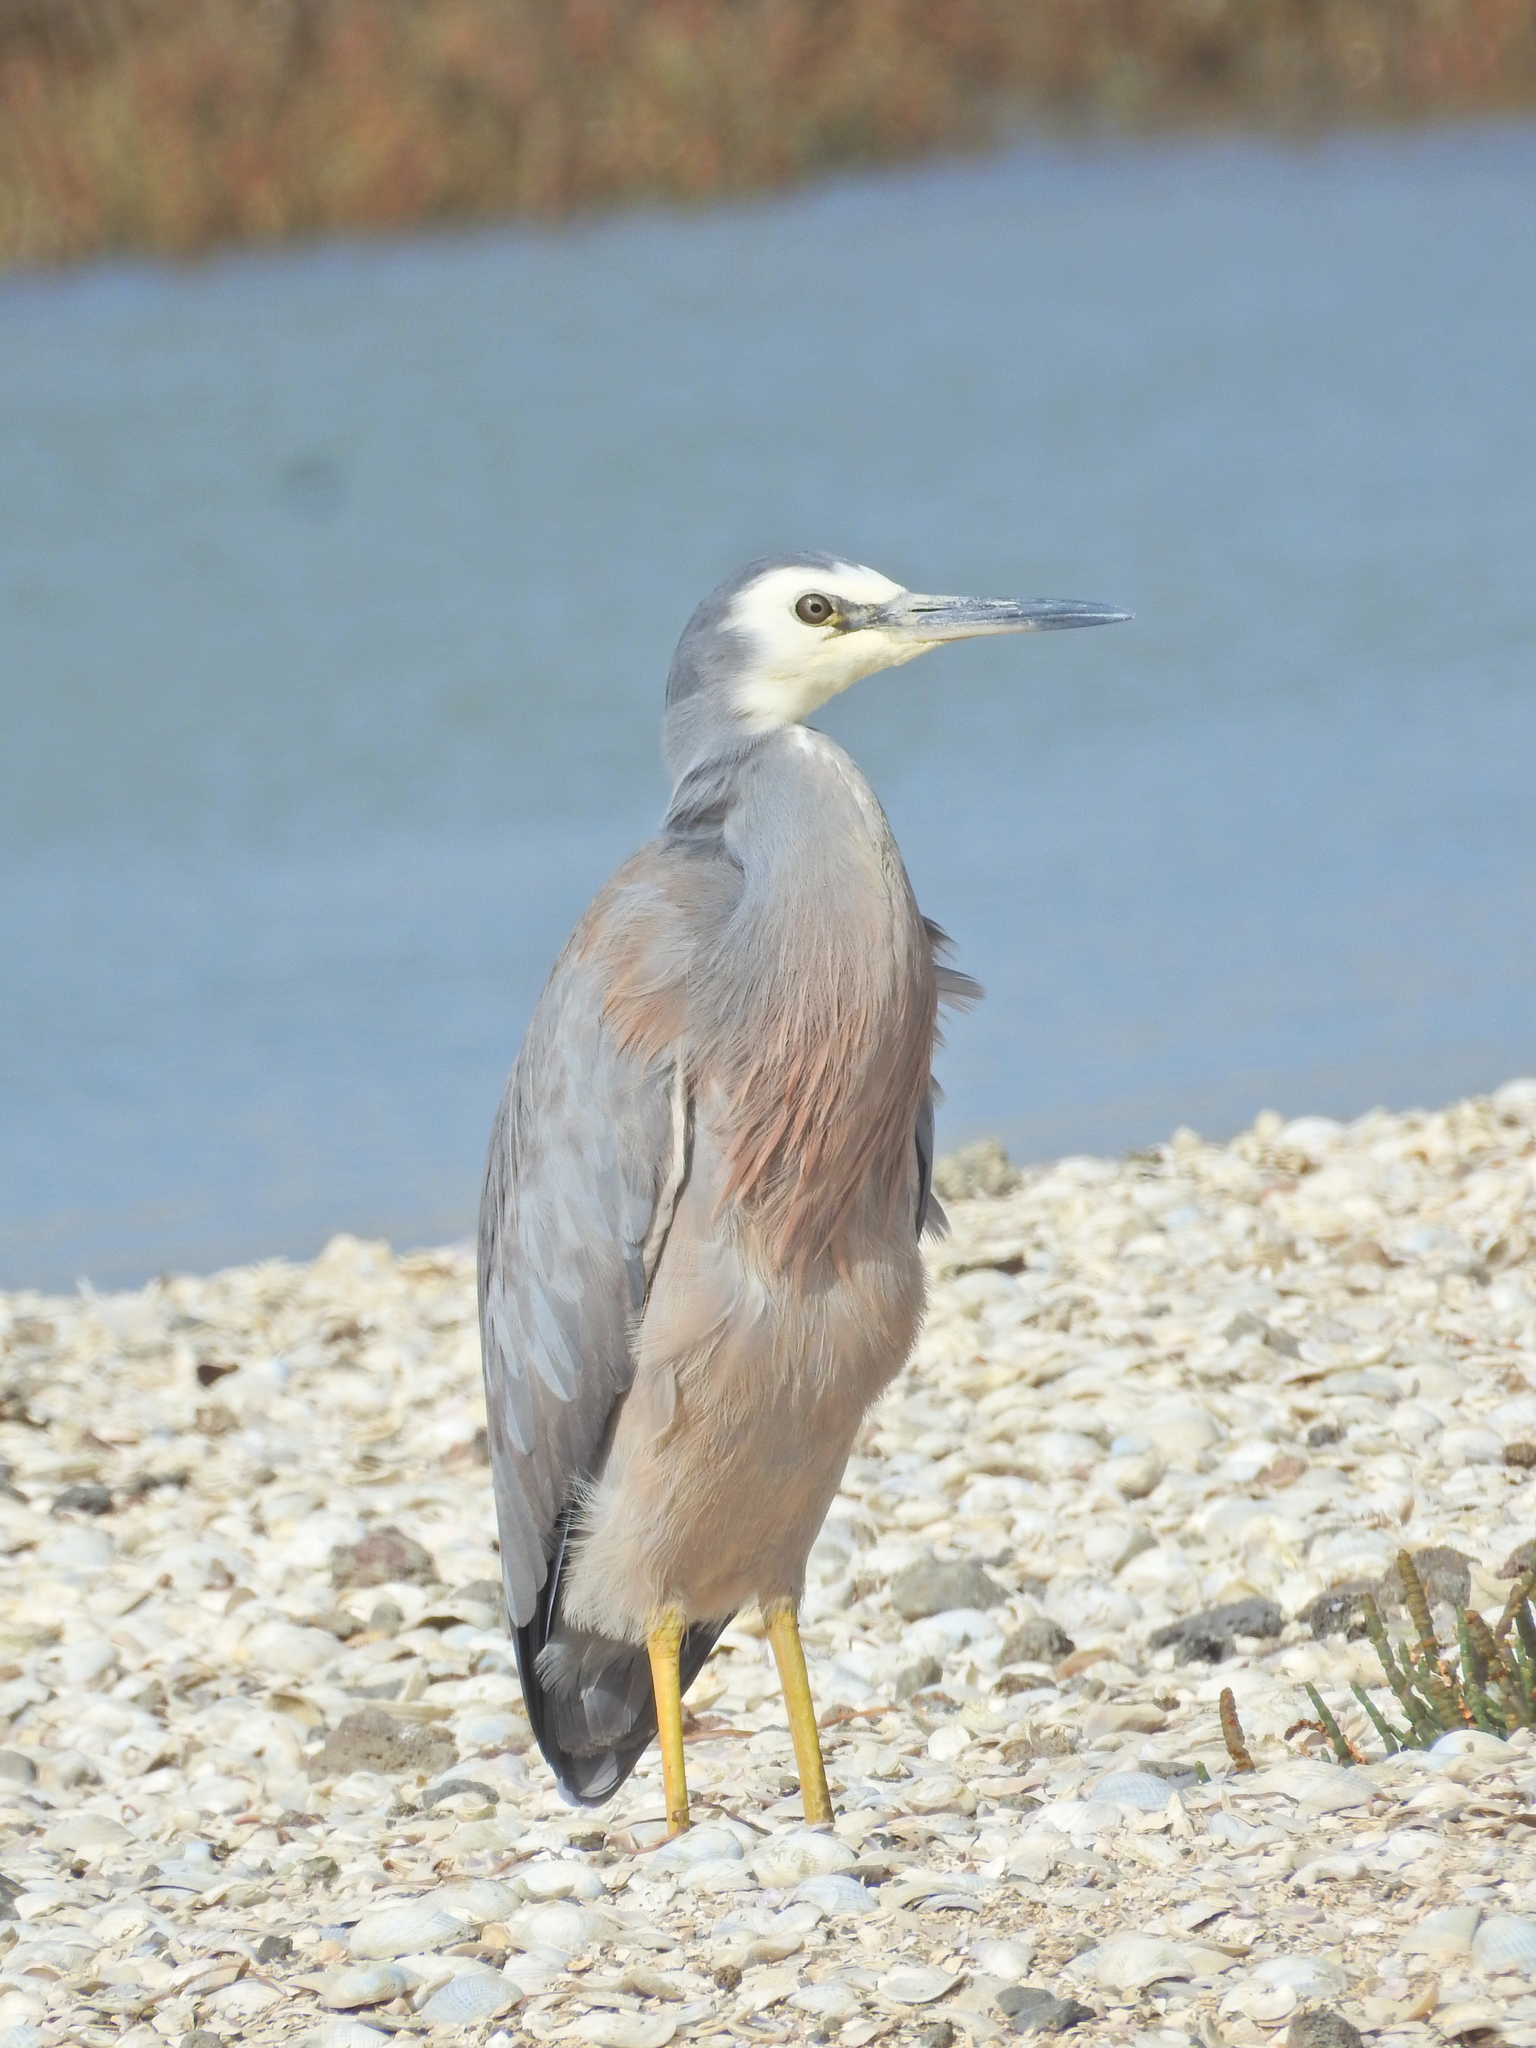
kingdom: Animalia
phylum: Chordata
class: Aves
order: Pelecaniformes
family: Ardeidae
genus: Egretta
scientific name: Egretta novaehollandiae
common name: White-faced heron
